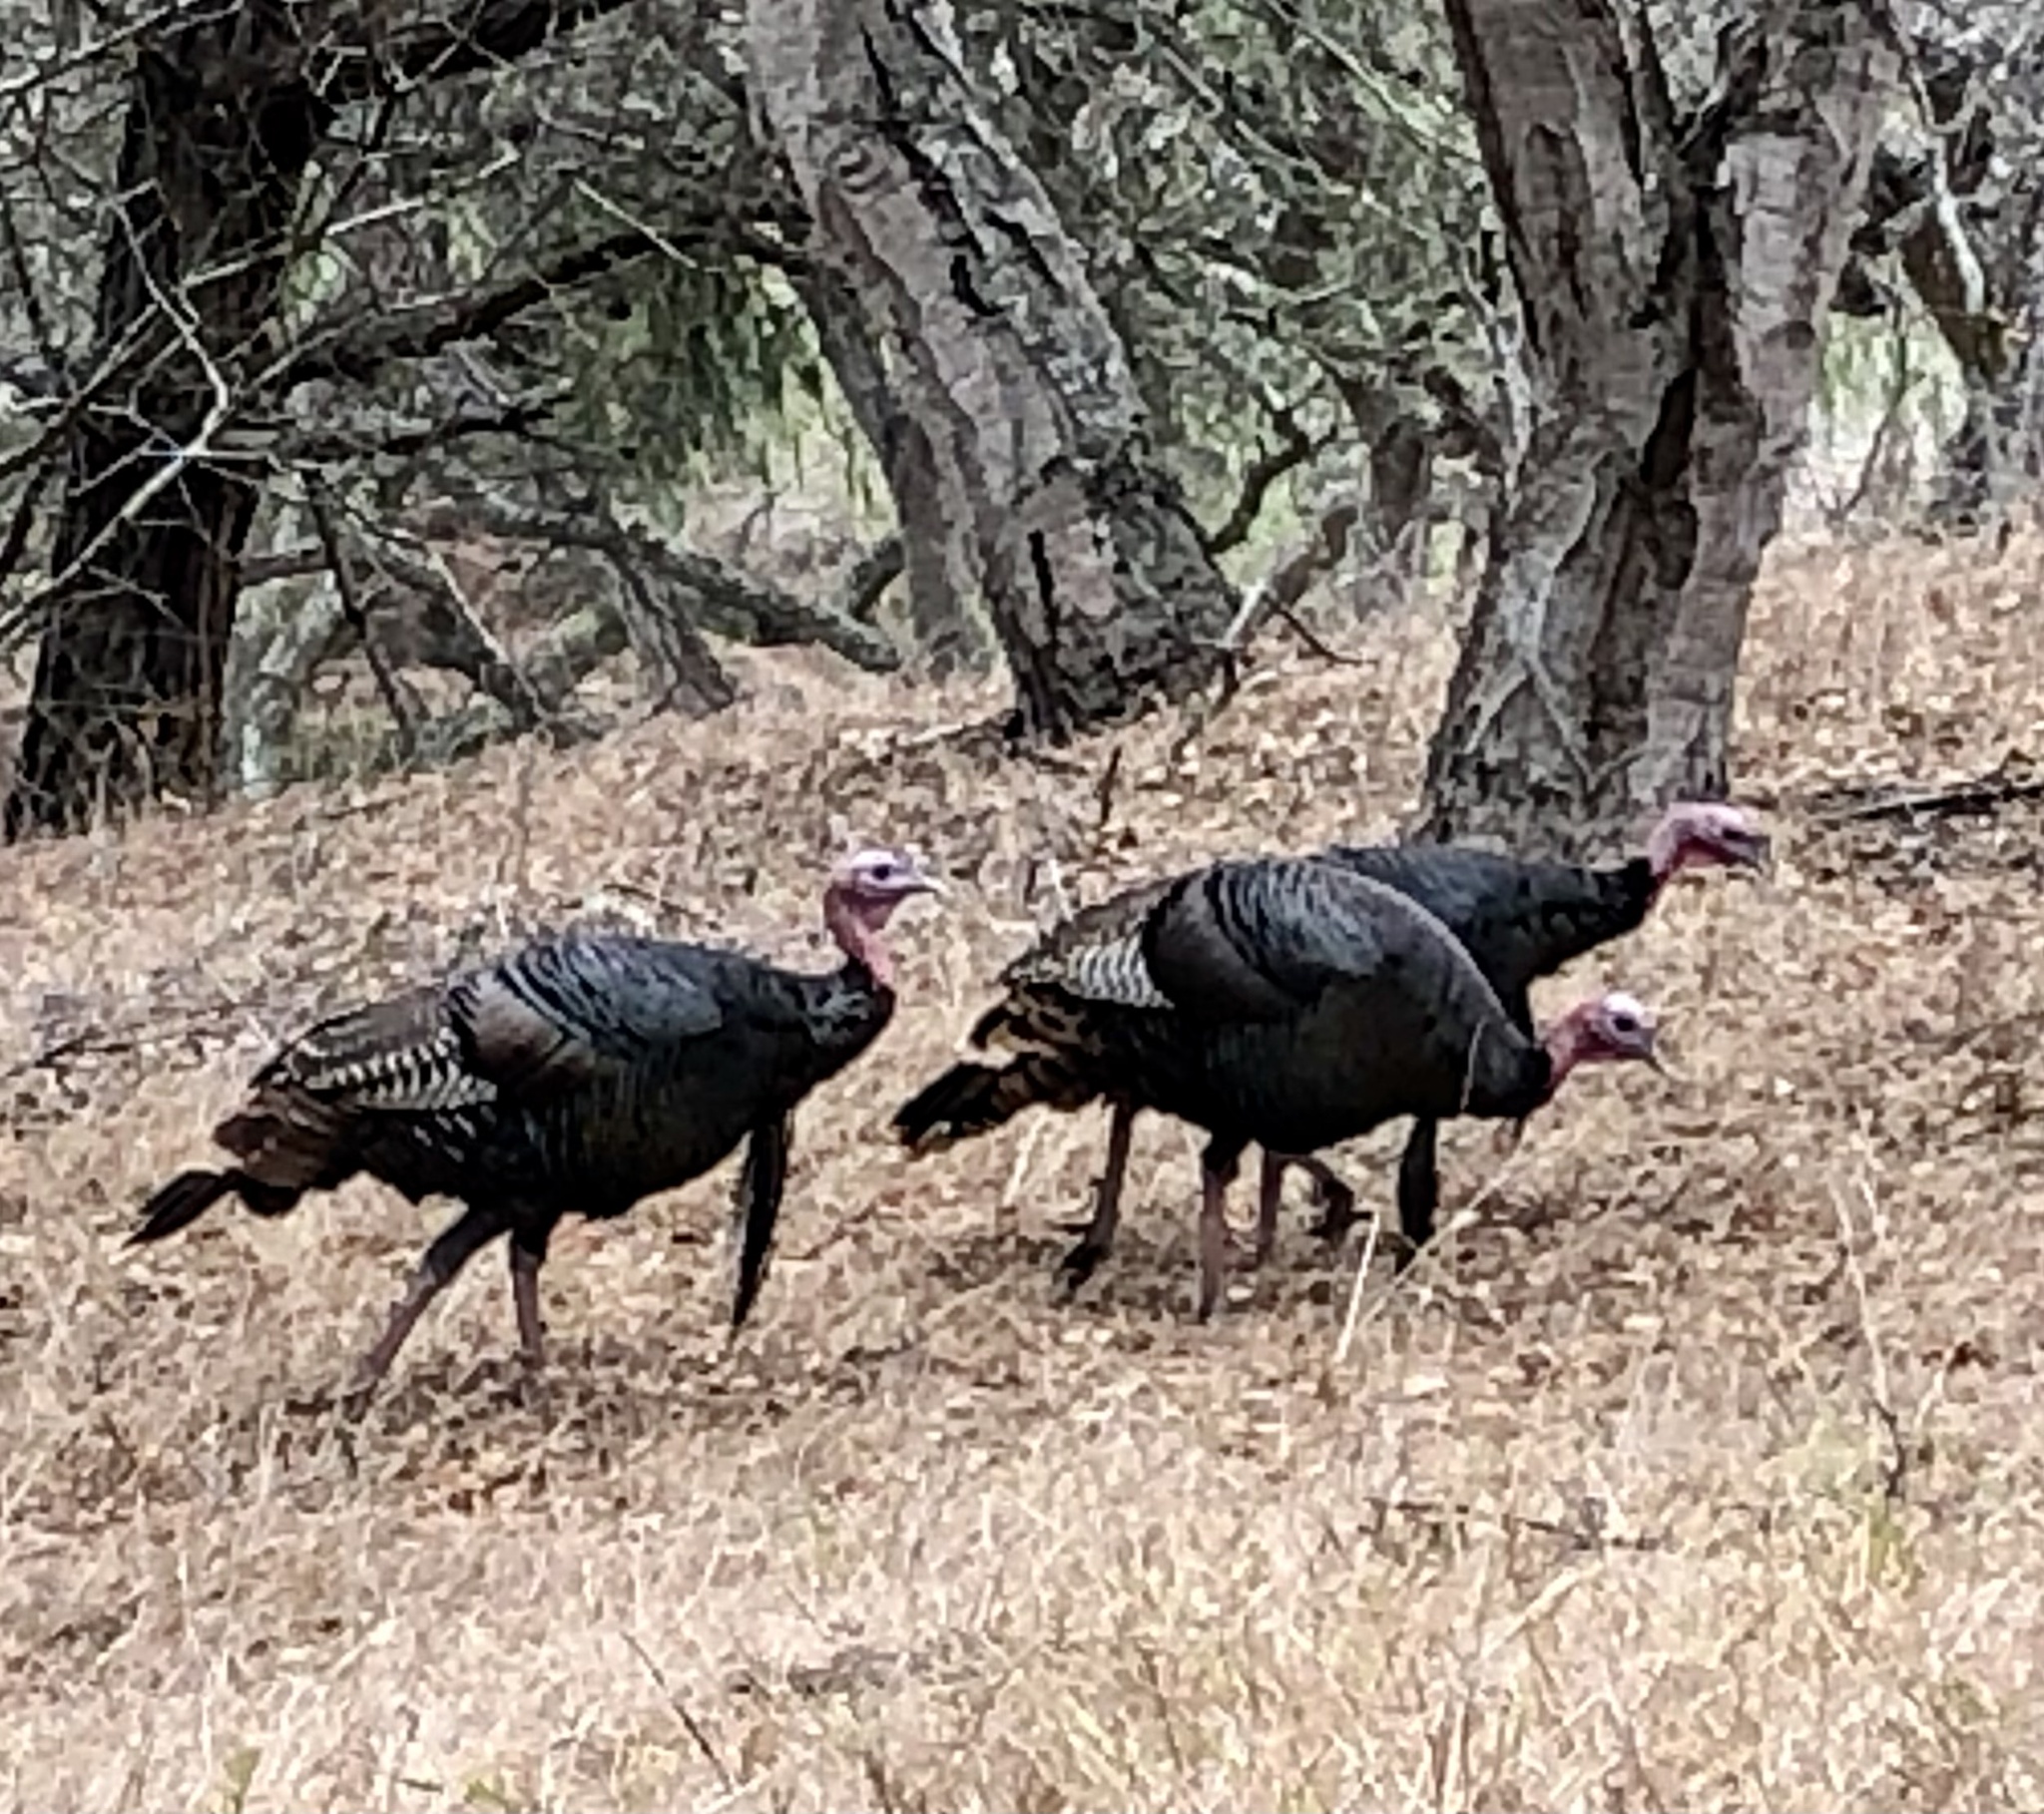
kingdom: Animalia
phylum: Chordata
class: Aves
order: Galliformes
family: Phasianidae
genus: Meleagris
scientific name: Meleagris gallopavo
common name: Wild turkey
